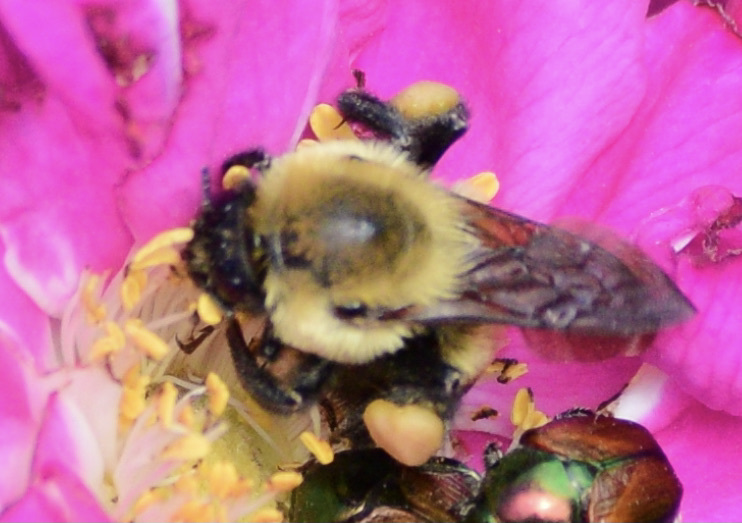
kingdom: Animalia
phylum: Arthropoda
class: Insecta
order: Hymenoptera
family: Apidae
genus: Bombus
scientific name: Bombus griseocollis
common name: Brown-belted bumble bee
